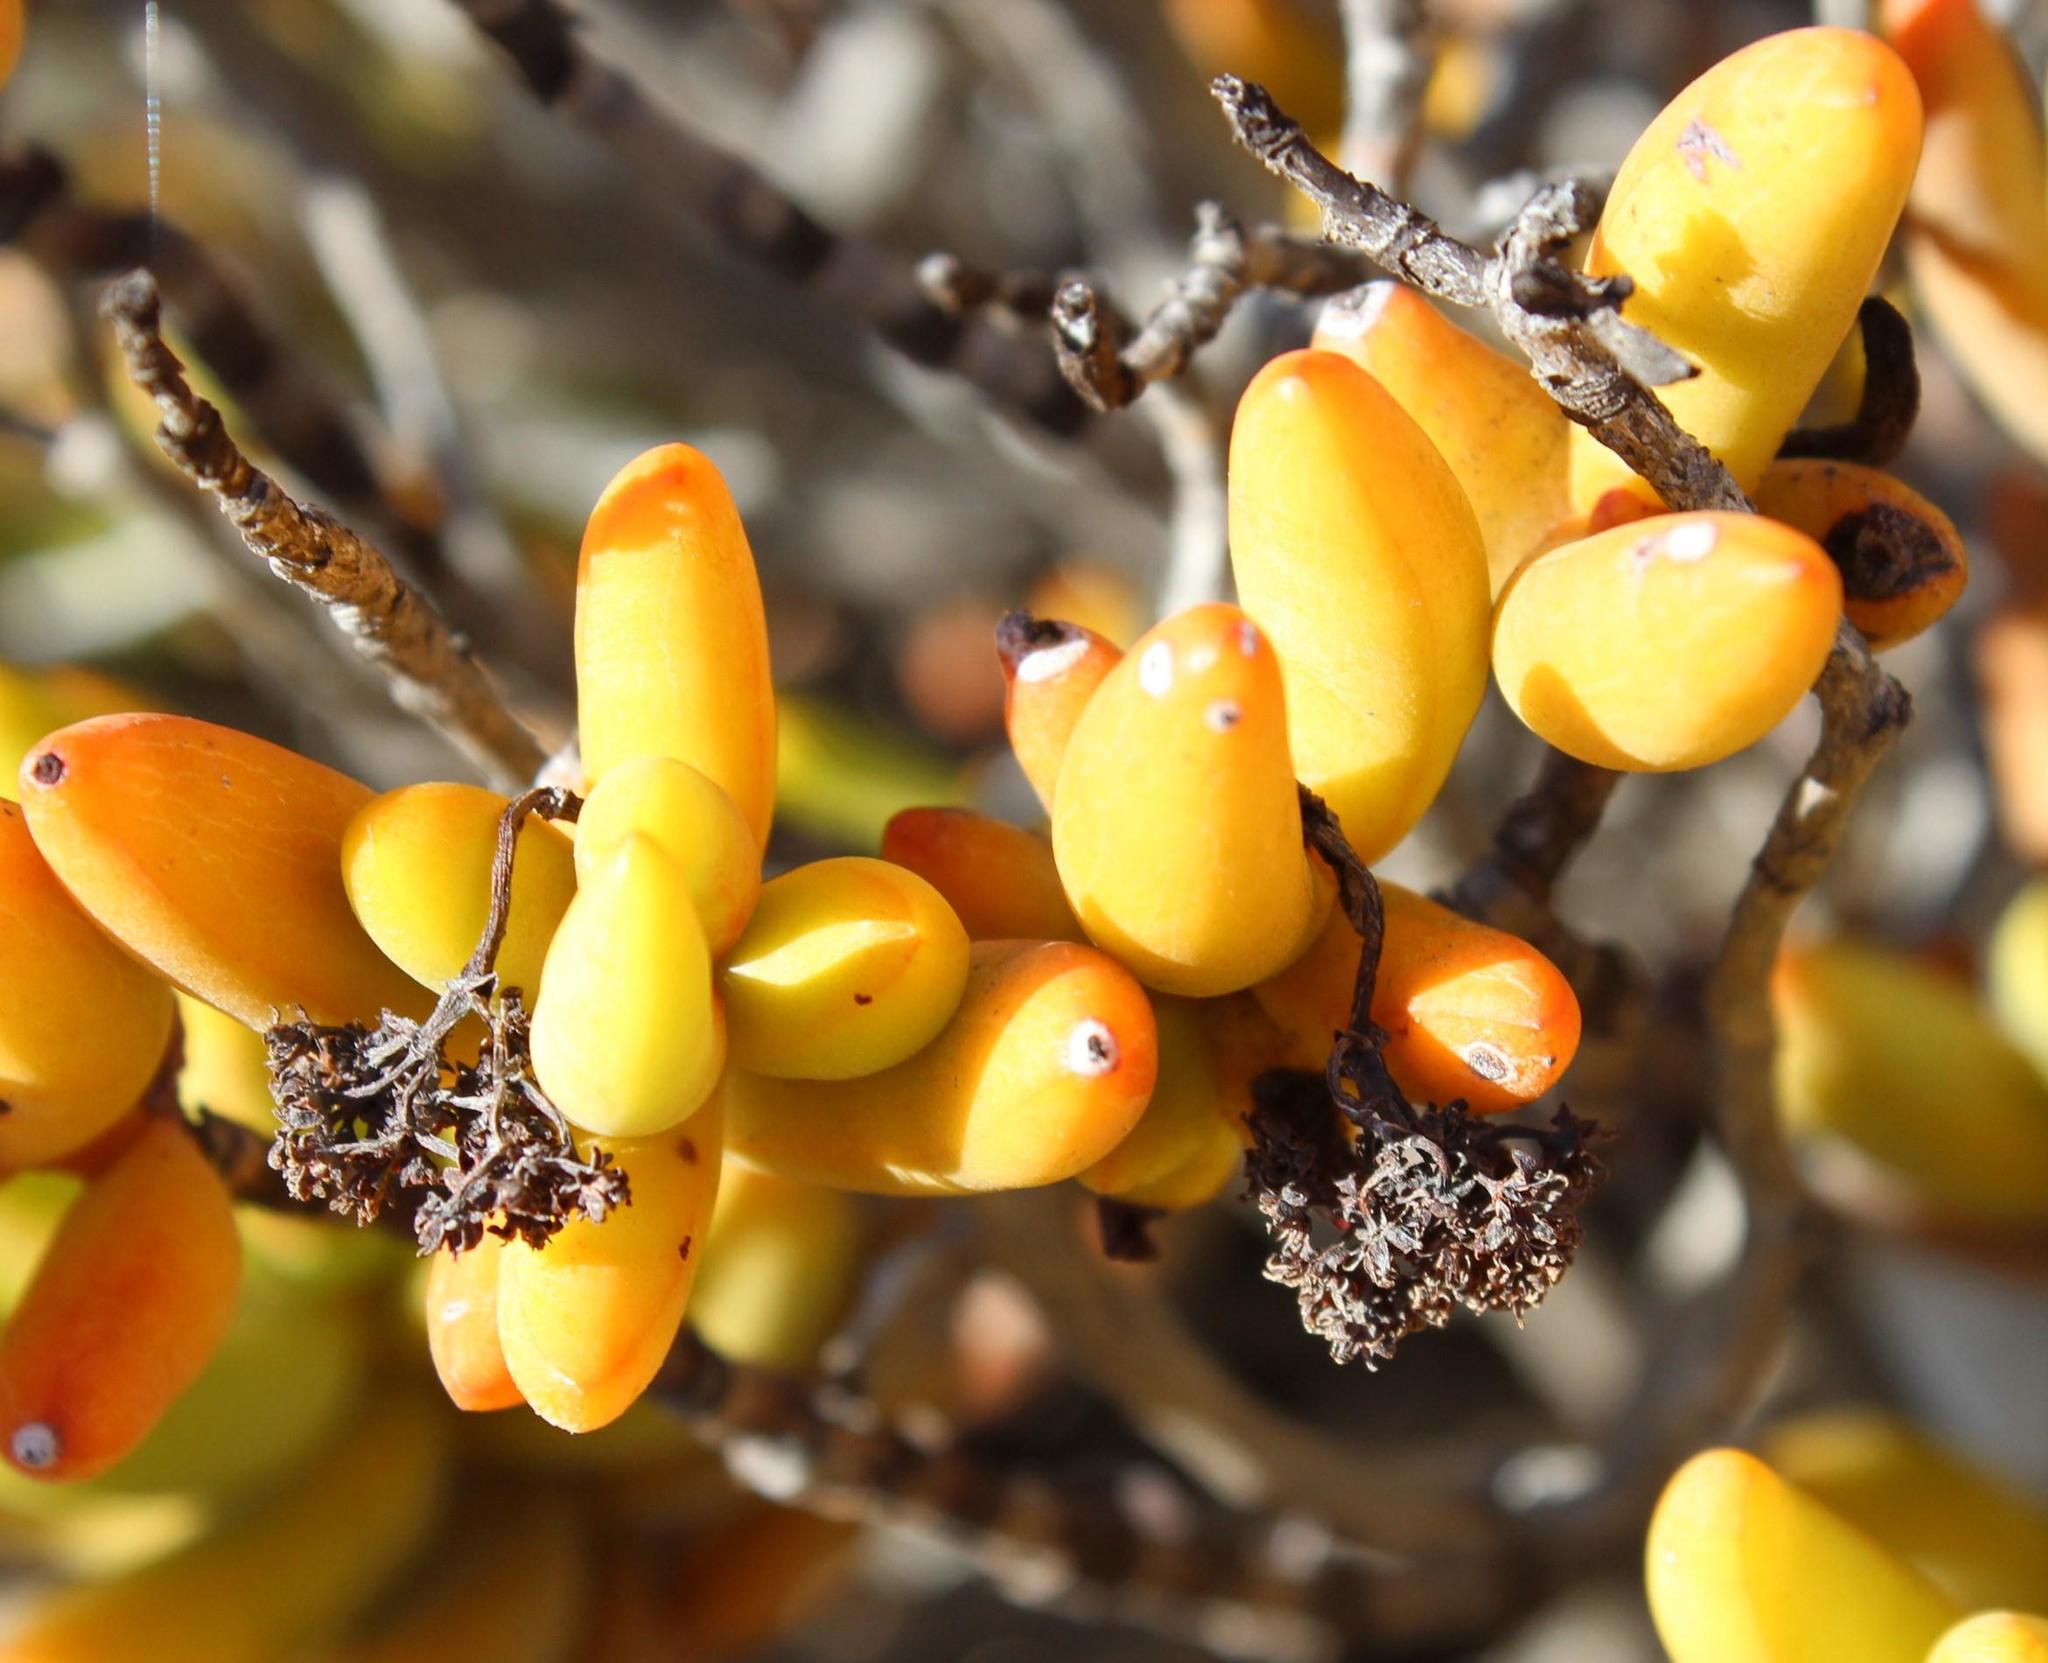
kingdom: Plantae
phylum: Tracheophyta
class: Magnoliopsida
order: Saxifragales
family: Crassulaceae
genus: Crassula
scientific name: Crassula brevifolia
